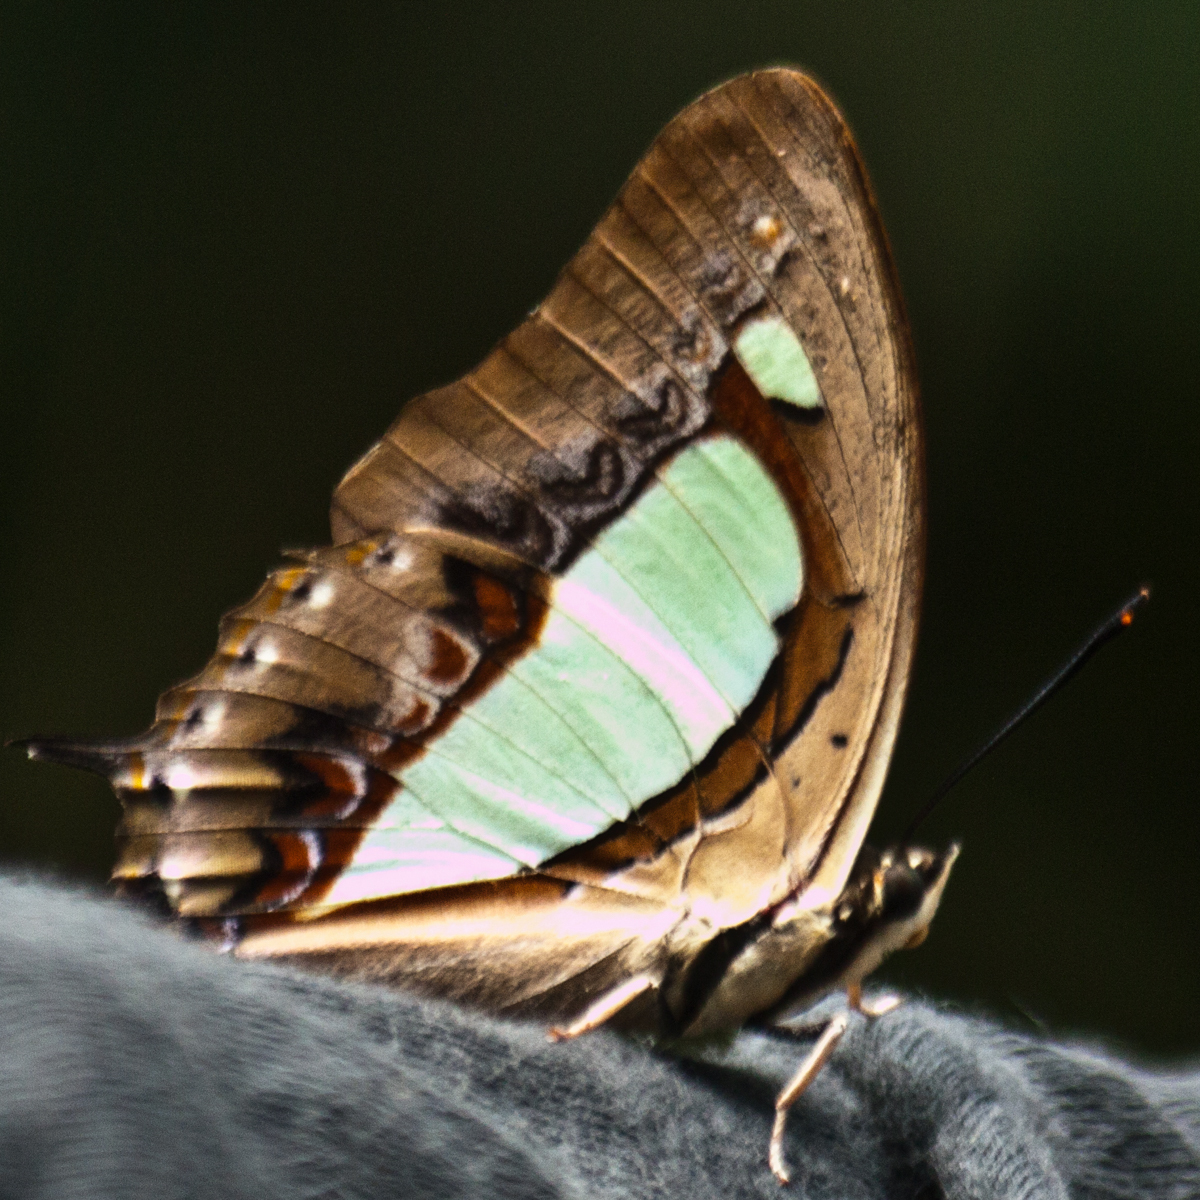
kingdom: Animalia
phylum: Arthropoda
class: Insecta
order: Lepidoptera
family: Nymphalidae
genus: Polyura
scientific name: Polyura arja
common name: Pallid nawab
